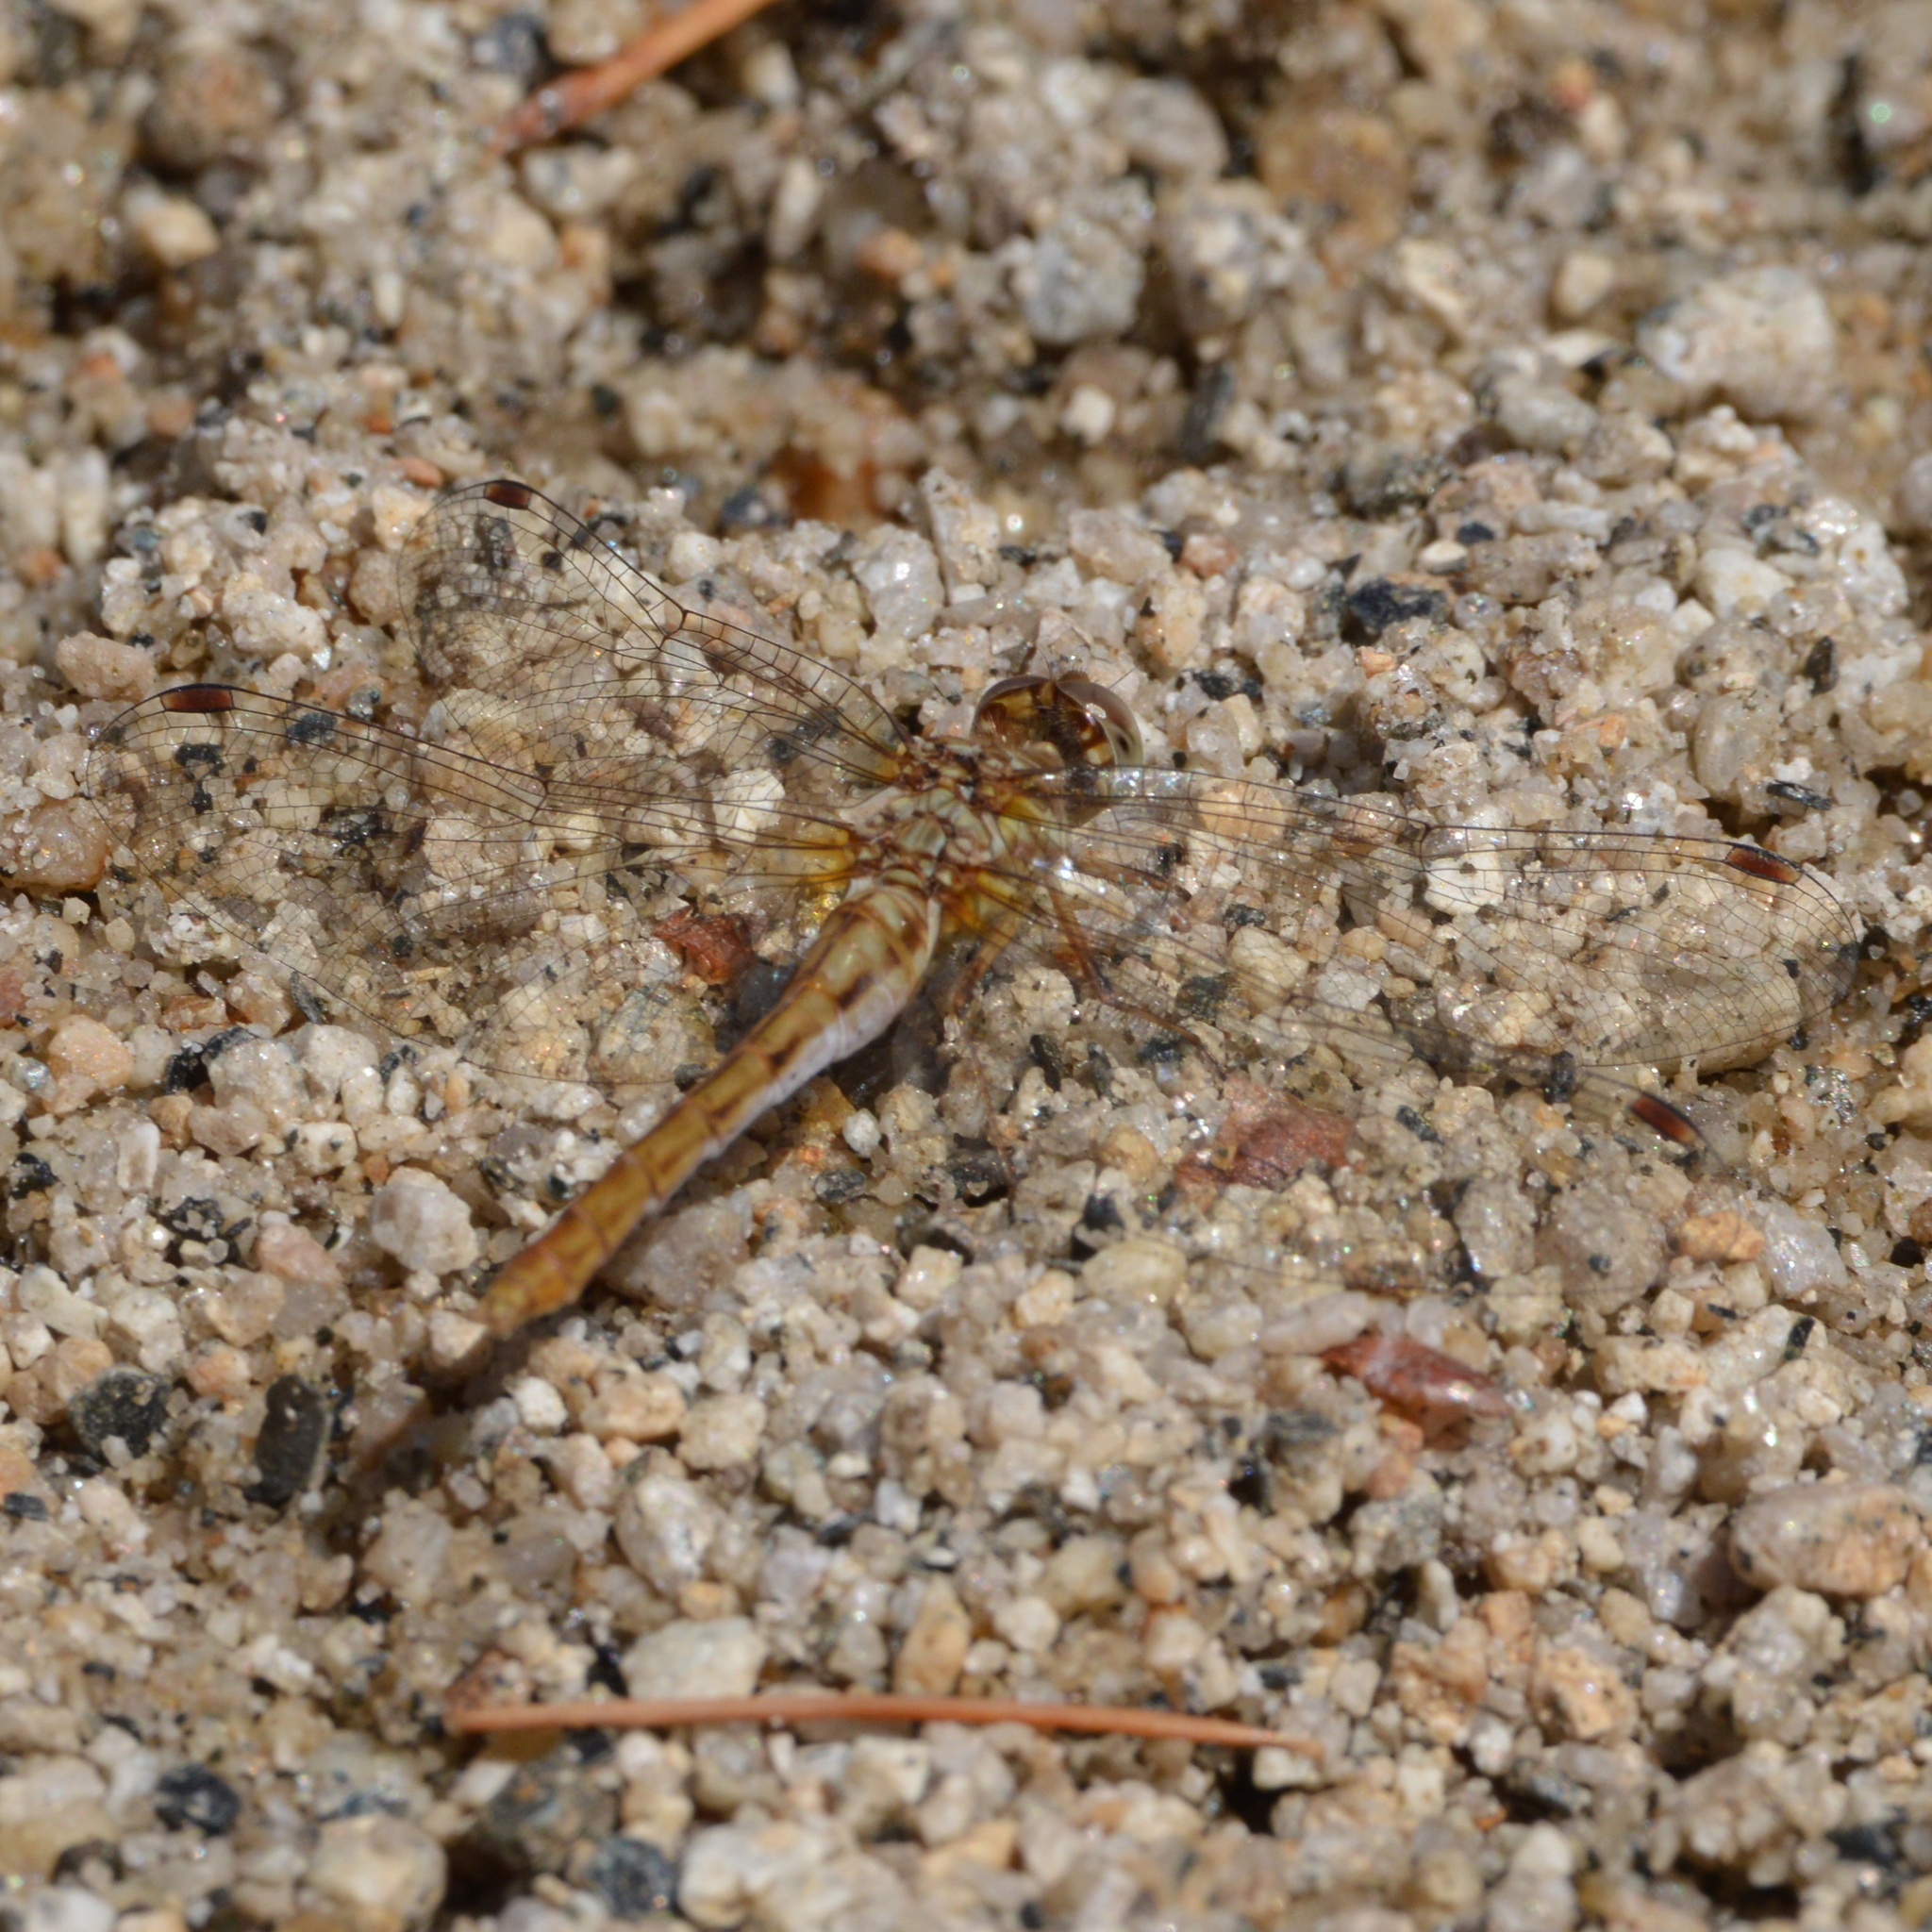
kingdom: Animalia
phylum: Arthropoda
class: Insecta
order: Odonata
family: Libellulidae
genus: Sympetrum
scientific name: Sympetrum pallipes
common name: Striped meadowhawk
